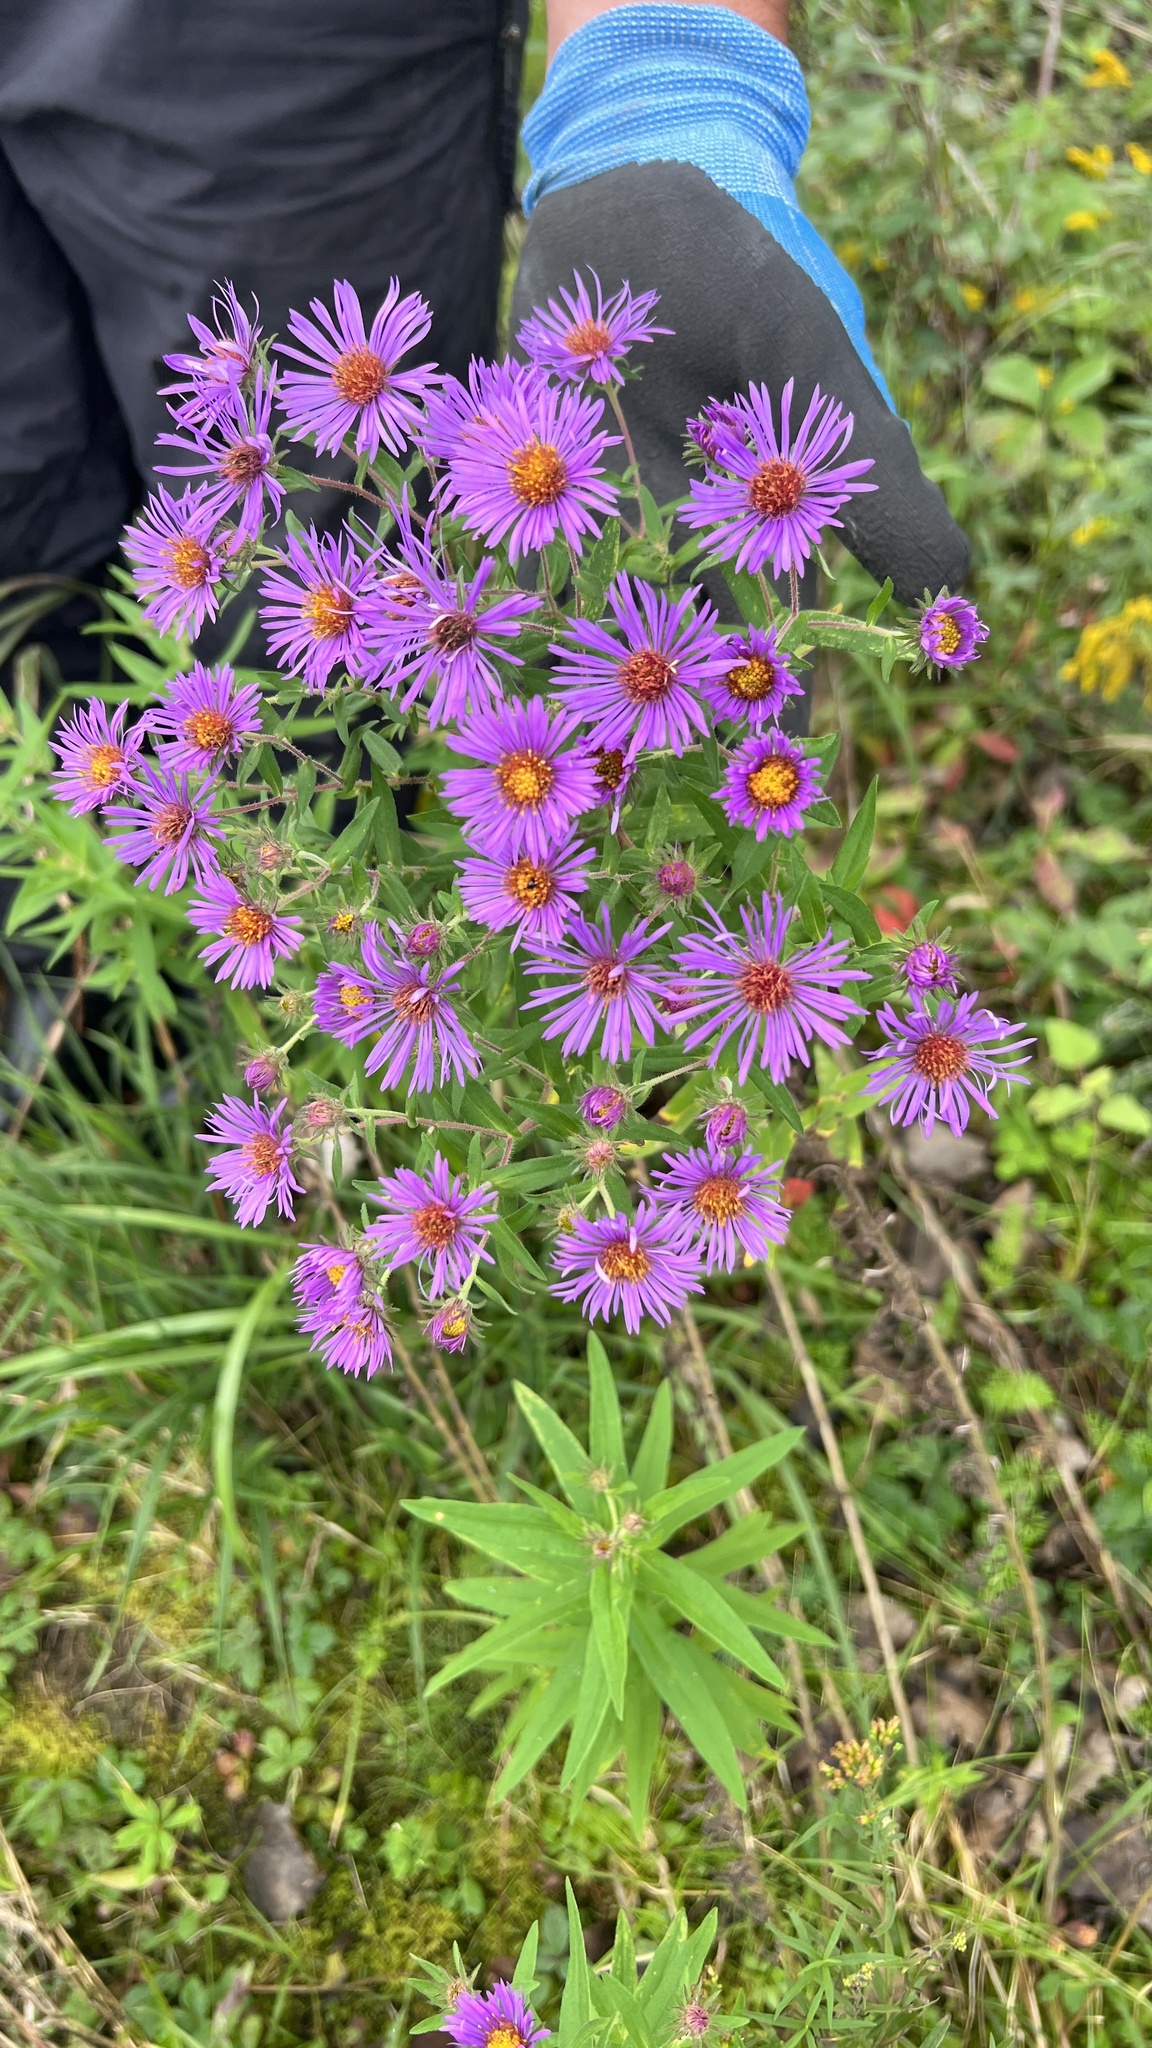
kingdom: Plantae
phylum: Tracheophyta
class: Magnoliopsida
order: Asterales
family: Asteraceae
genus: Symphyotrichum
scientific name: Symphyotrichum novae-angliae
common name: Michaelmas daisy
